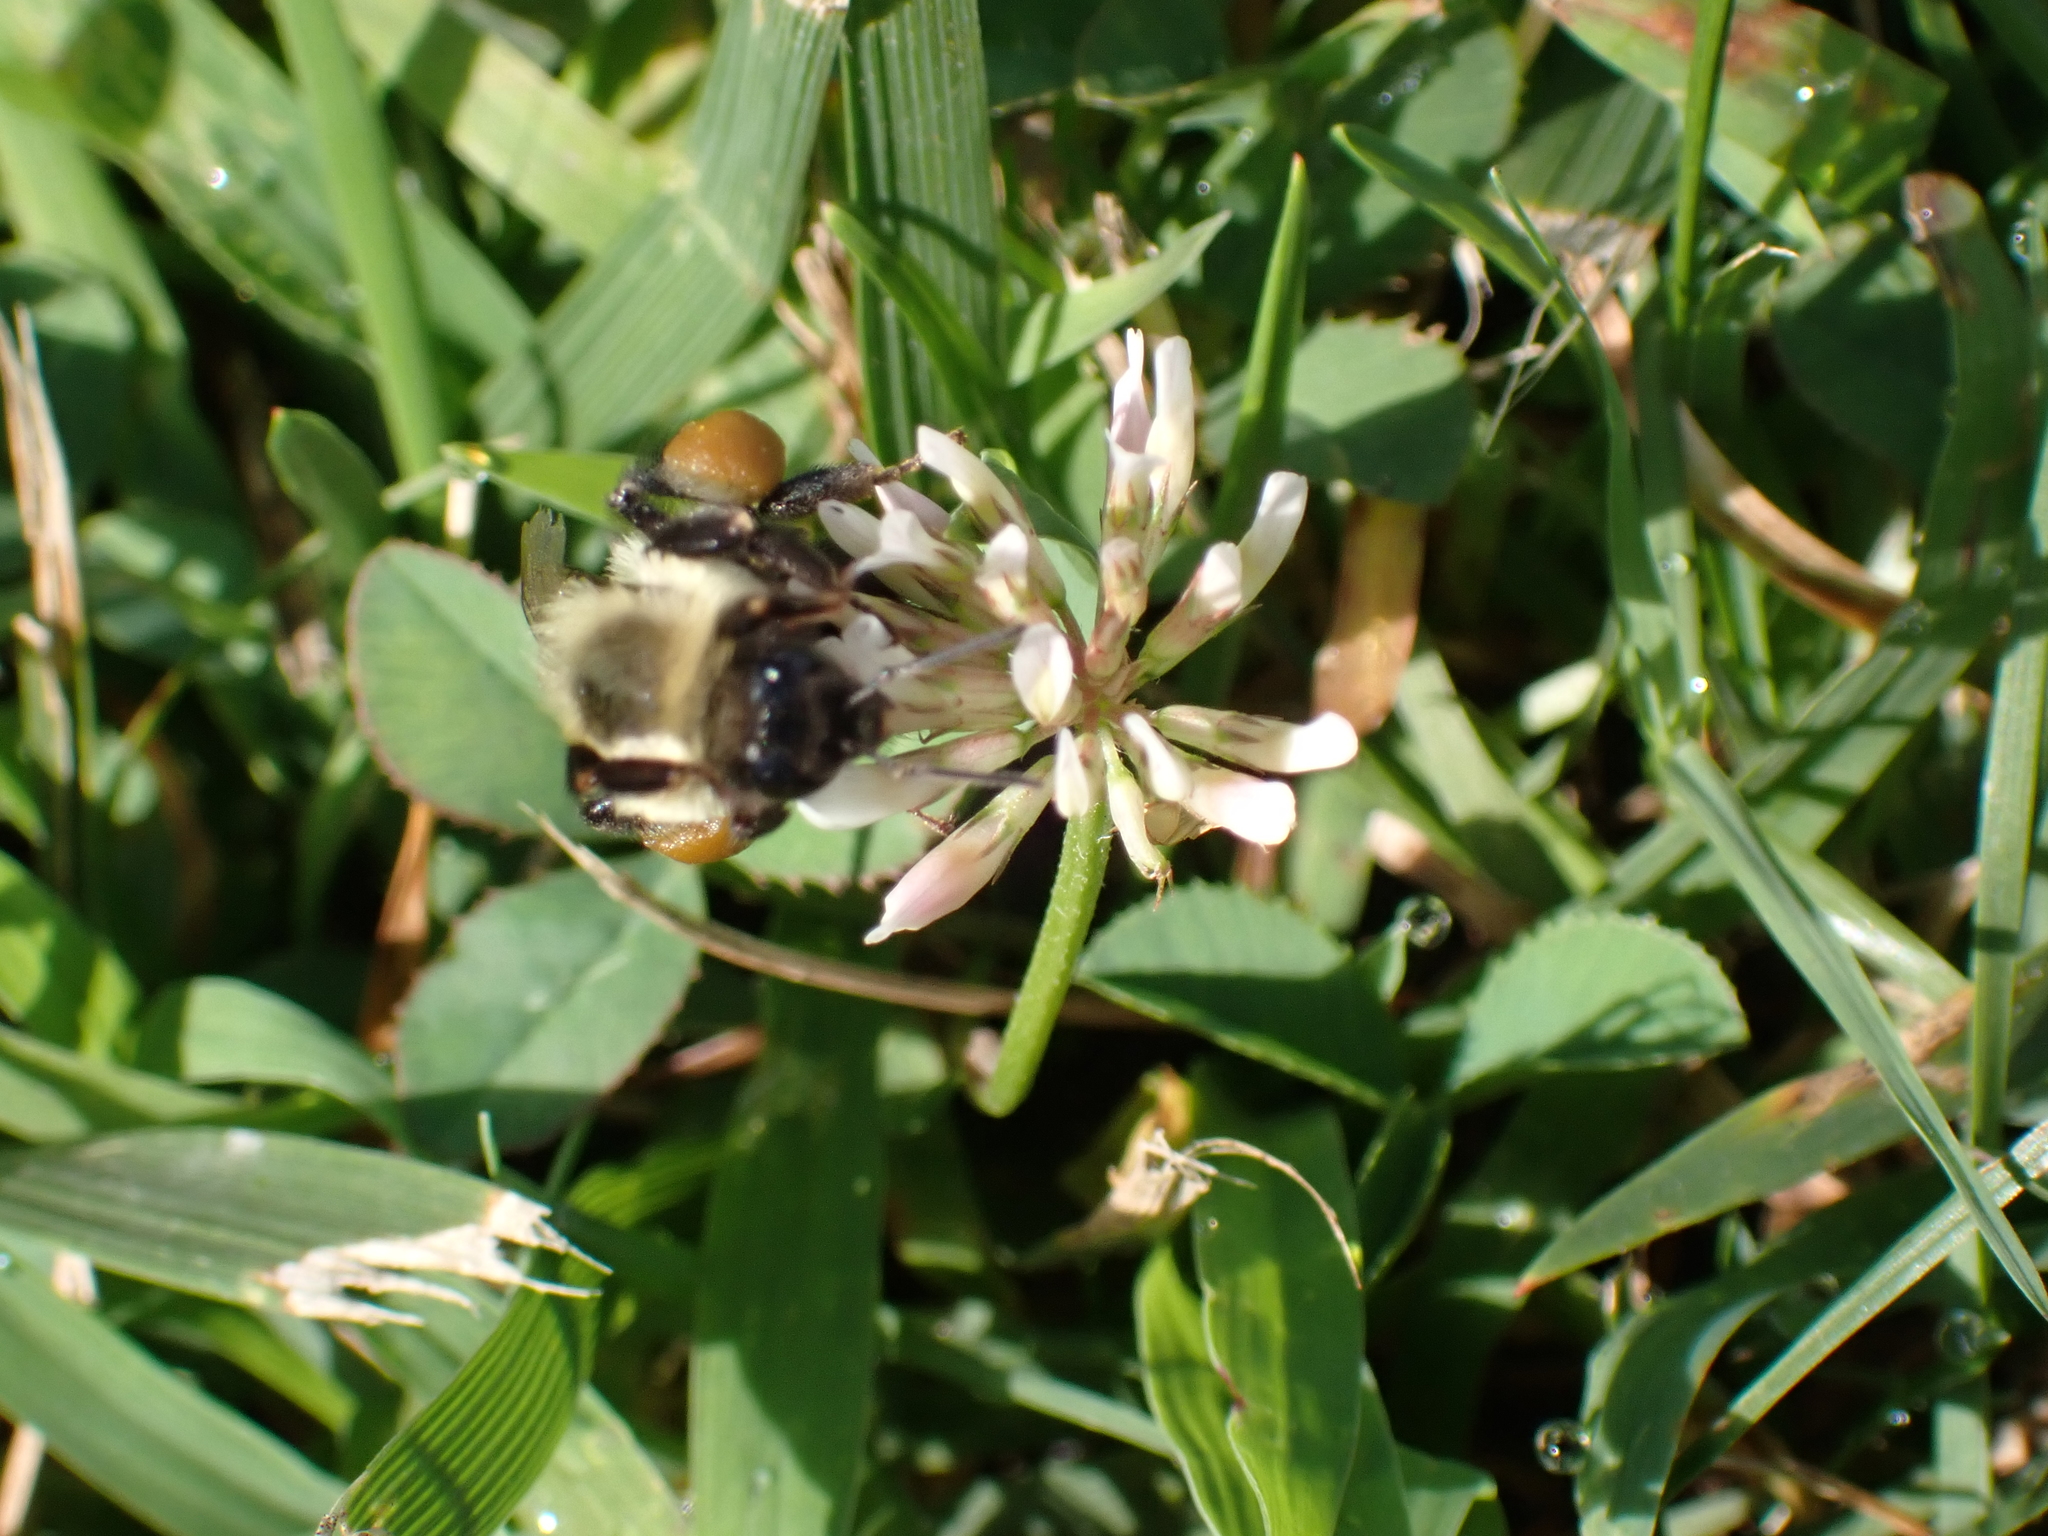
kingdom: Animalia
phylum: Arthropoda
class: Insecta
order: Hymenoptera
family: Apidae
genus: Bombus
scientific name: Bombus impatiens
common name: Common eastern bumble bee
